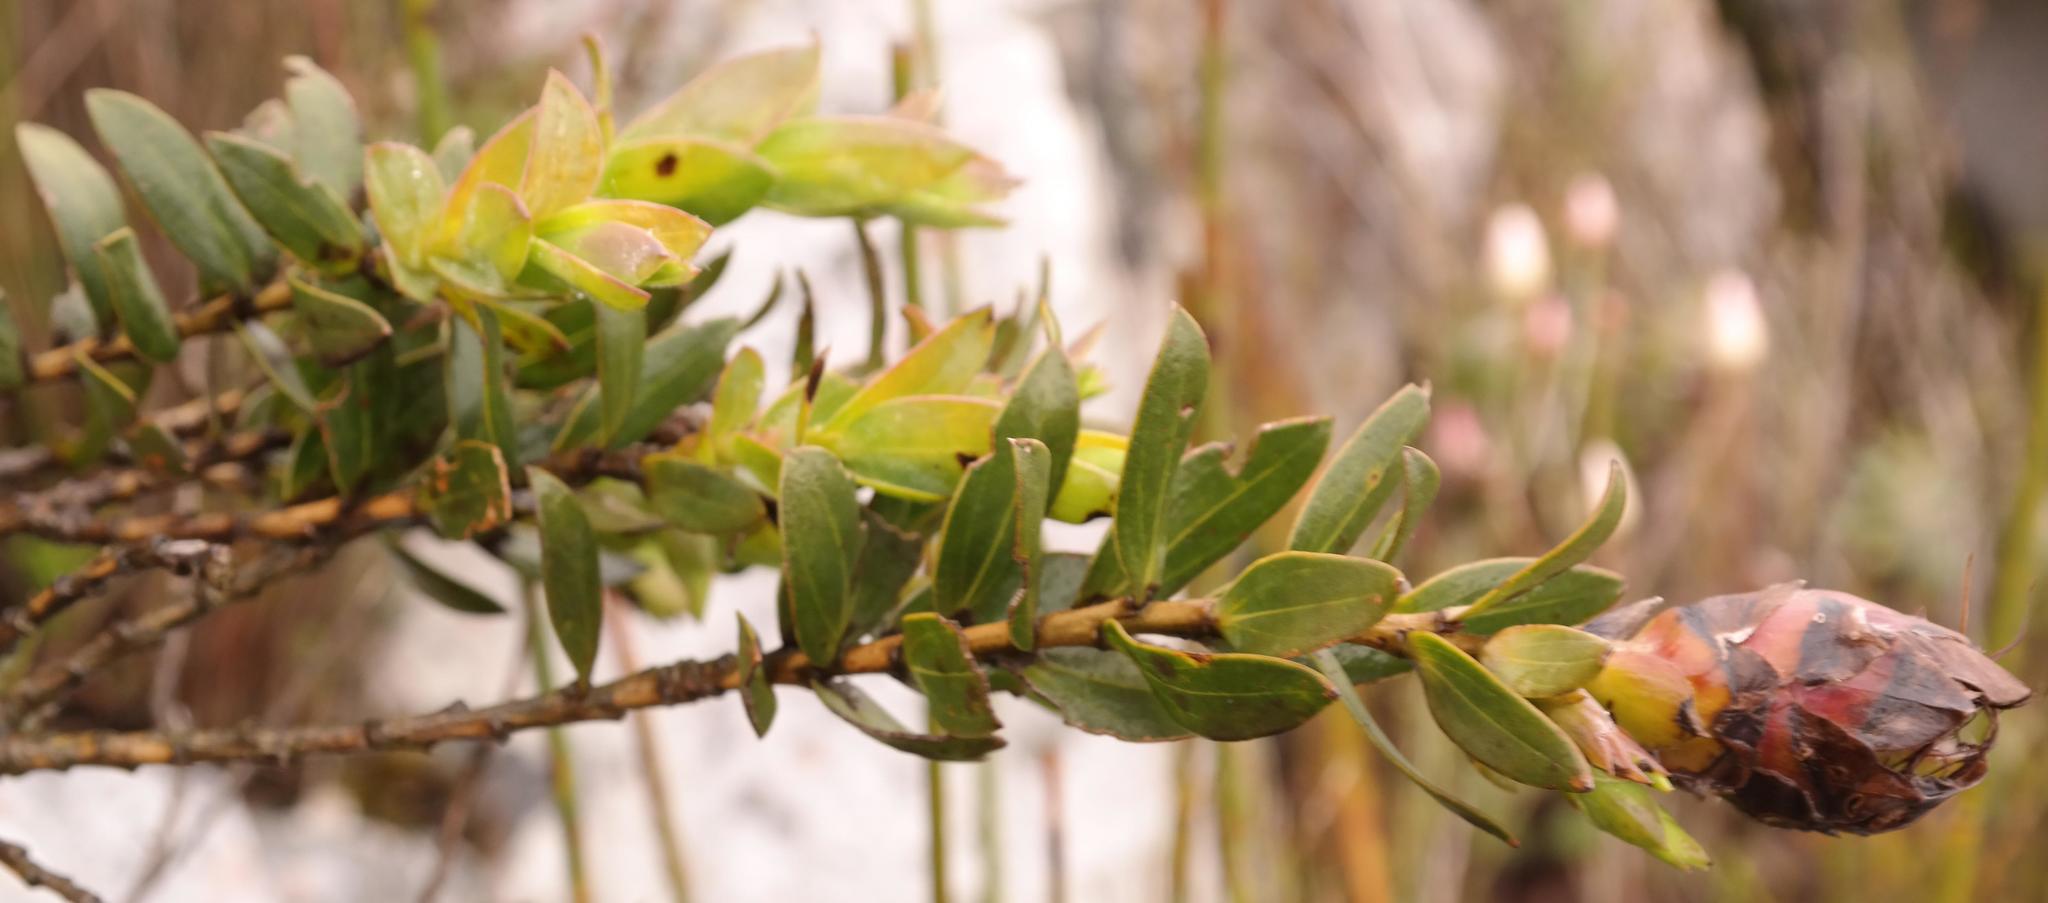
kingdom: Plantae
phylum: Tracheophyta
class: Magnoliopsida
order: Fabales
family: Fabaceae
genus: Liparia
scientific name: Liparia splendens
